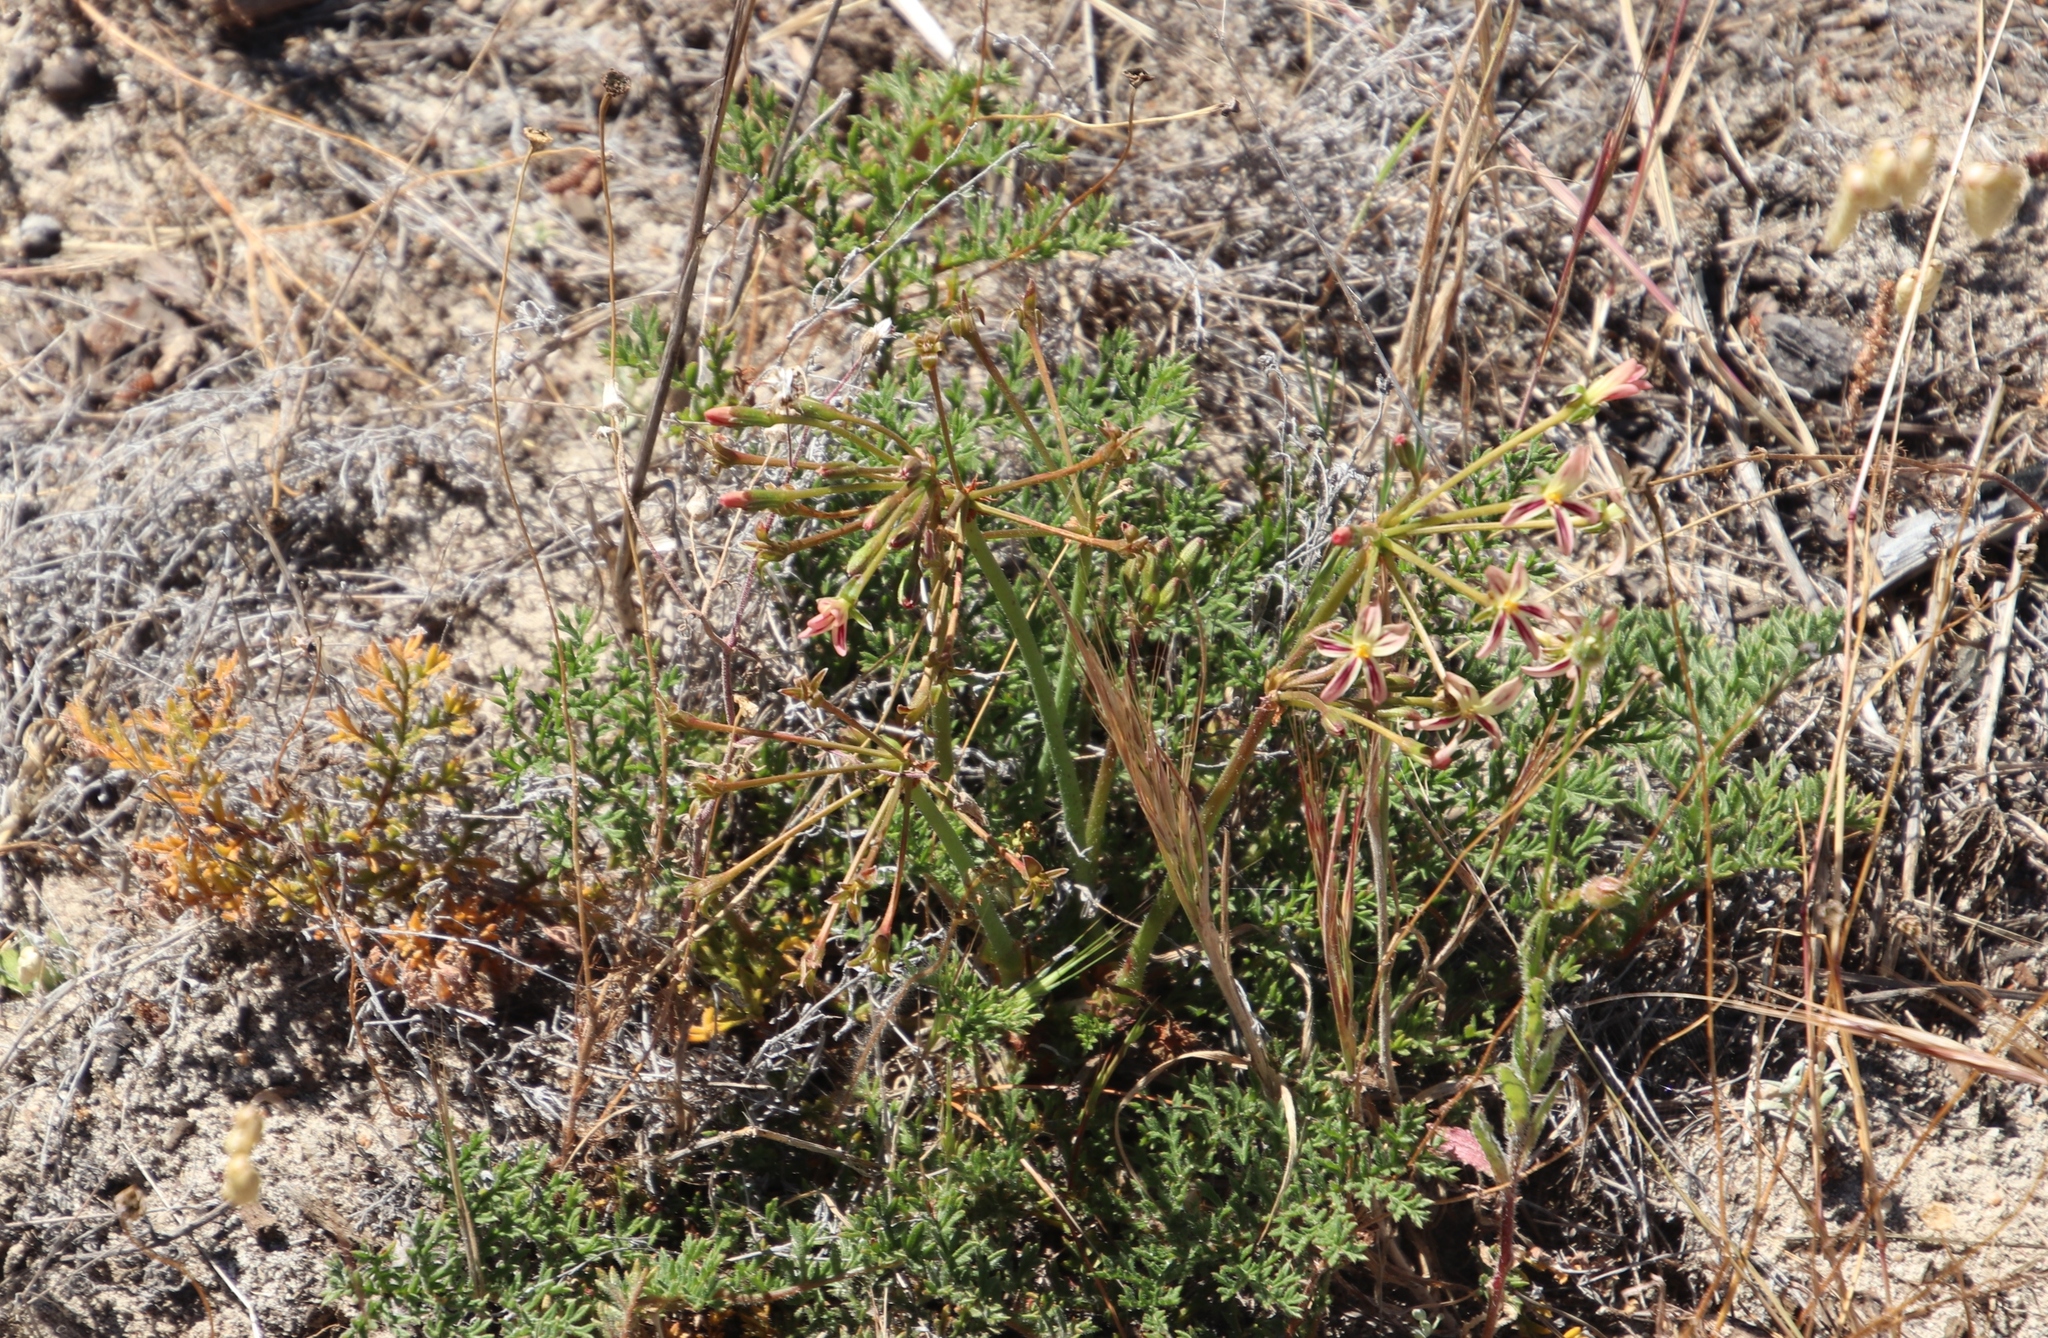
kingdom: Plantae
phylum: Tracheophyta
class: Magnoliopsida
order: Geraniales
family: Geraniaceae
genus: Pelargonium
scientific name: Pelargonium triste
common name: Night-scent pelargonium
